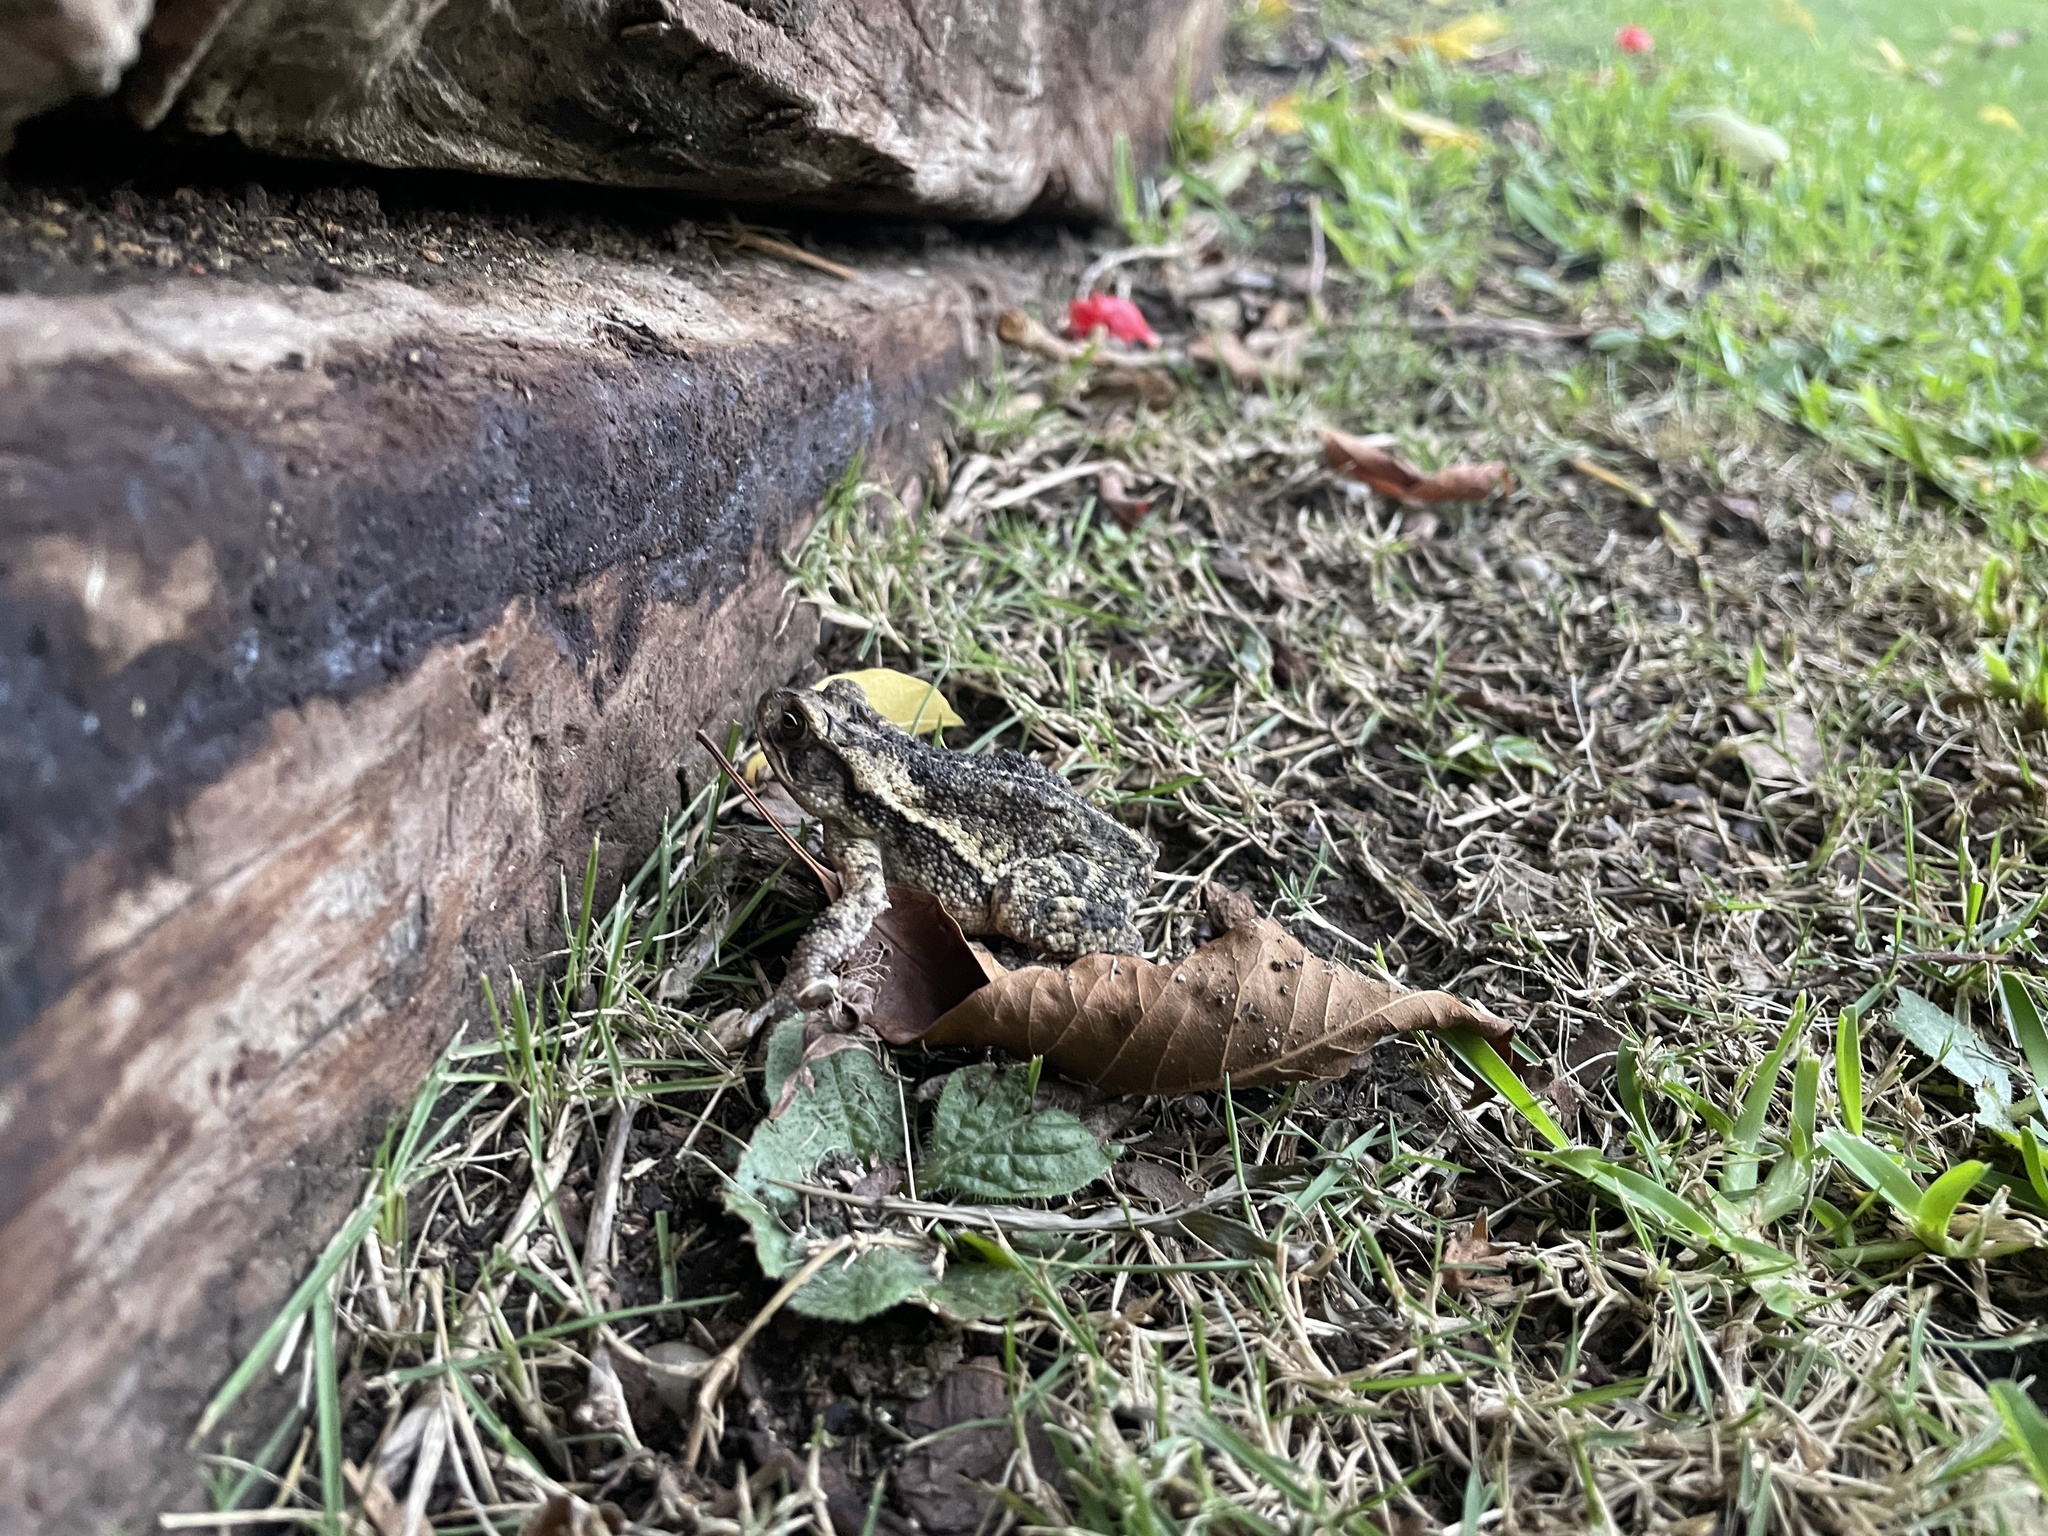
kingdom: Animalia
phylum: Chordata
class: Amphibia
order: Anura
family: Bufonidae
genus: Incilius
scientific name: Incilius nebulifer
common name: Gulf coast toad
